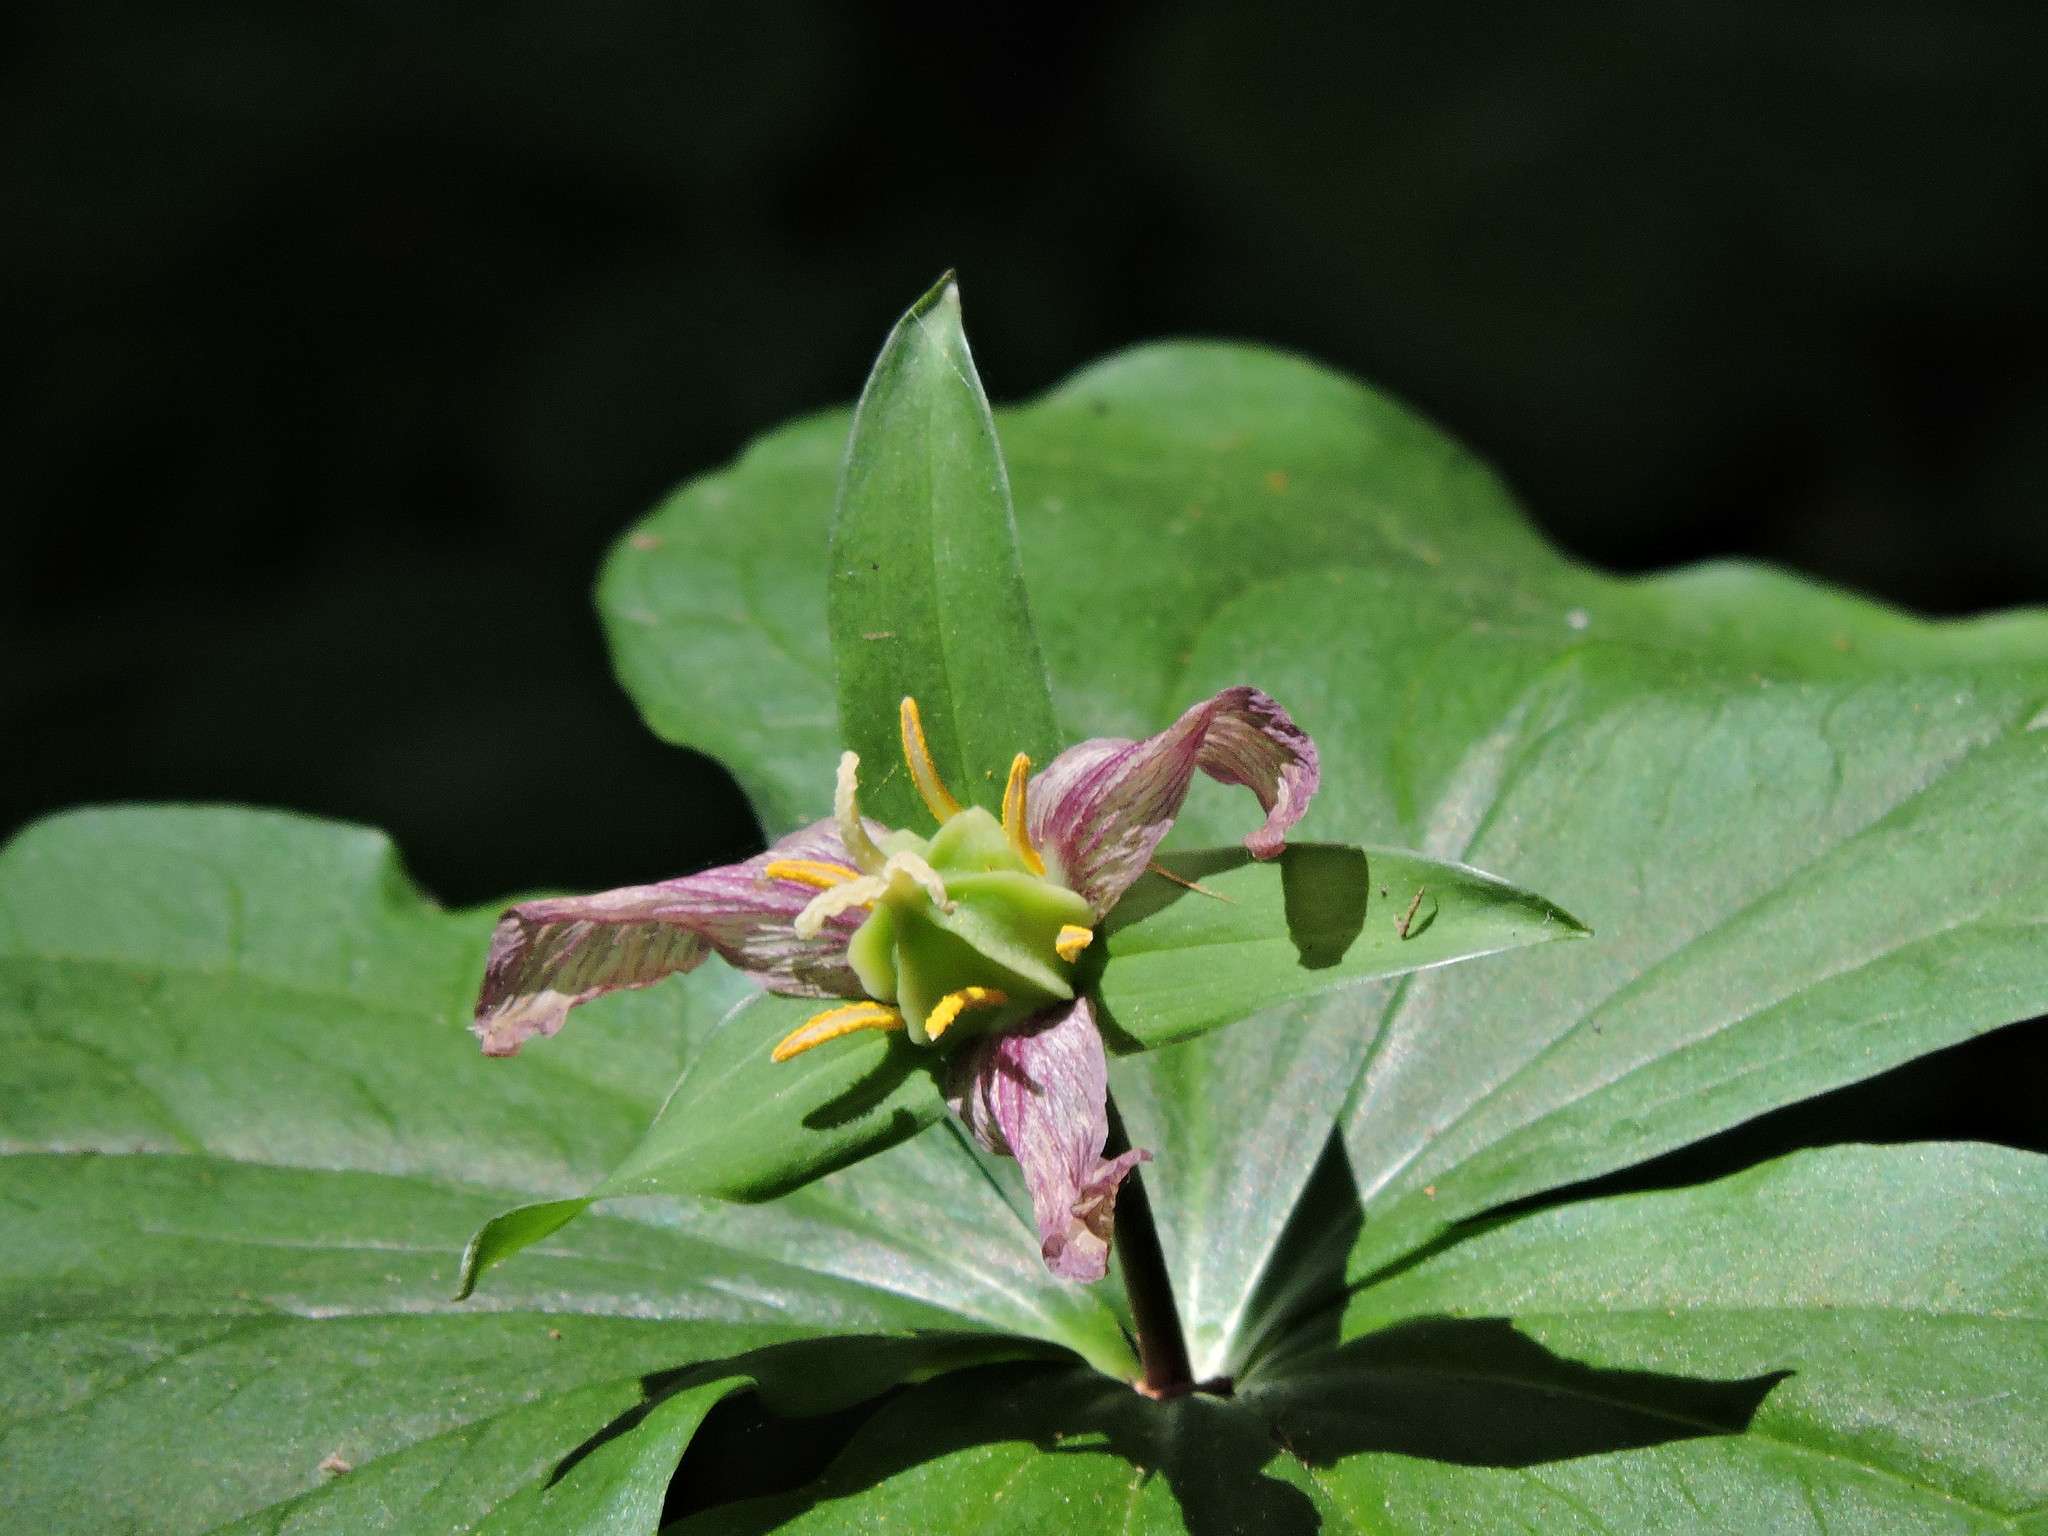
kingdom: Plantae
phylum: Tracheophyta
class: Liliopsida
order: Liliales
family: Melanthiaceae
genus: Trillium
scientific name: Trillium ovatum
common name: Pacific trillium
